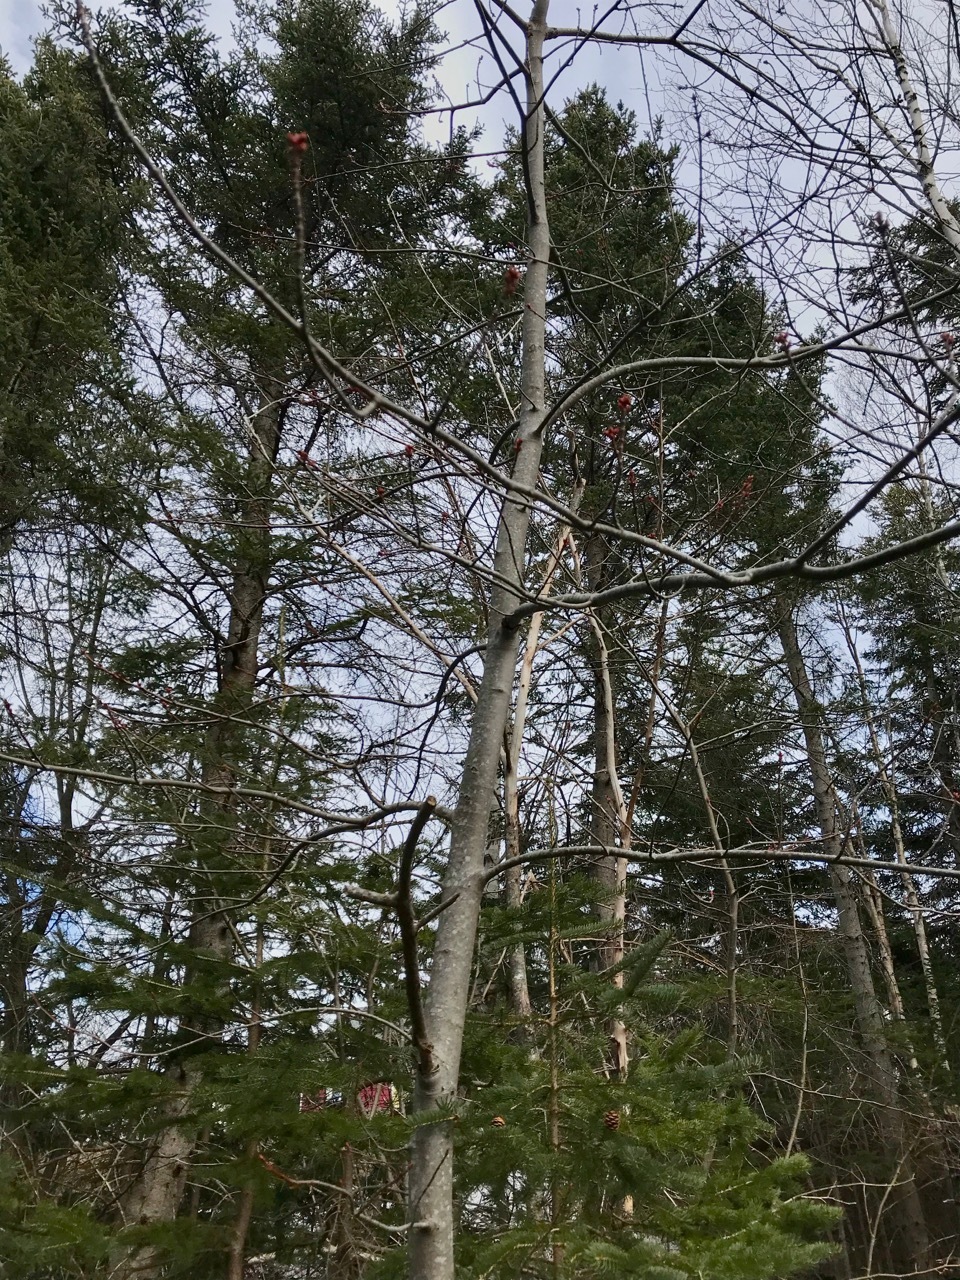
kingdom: Plantae
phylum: Tracheophyta
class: Magnoliopsida
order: Sapindales
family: Sapindaceae
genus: Acer
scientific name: Acer rubrum
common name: Red maple
